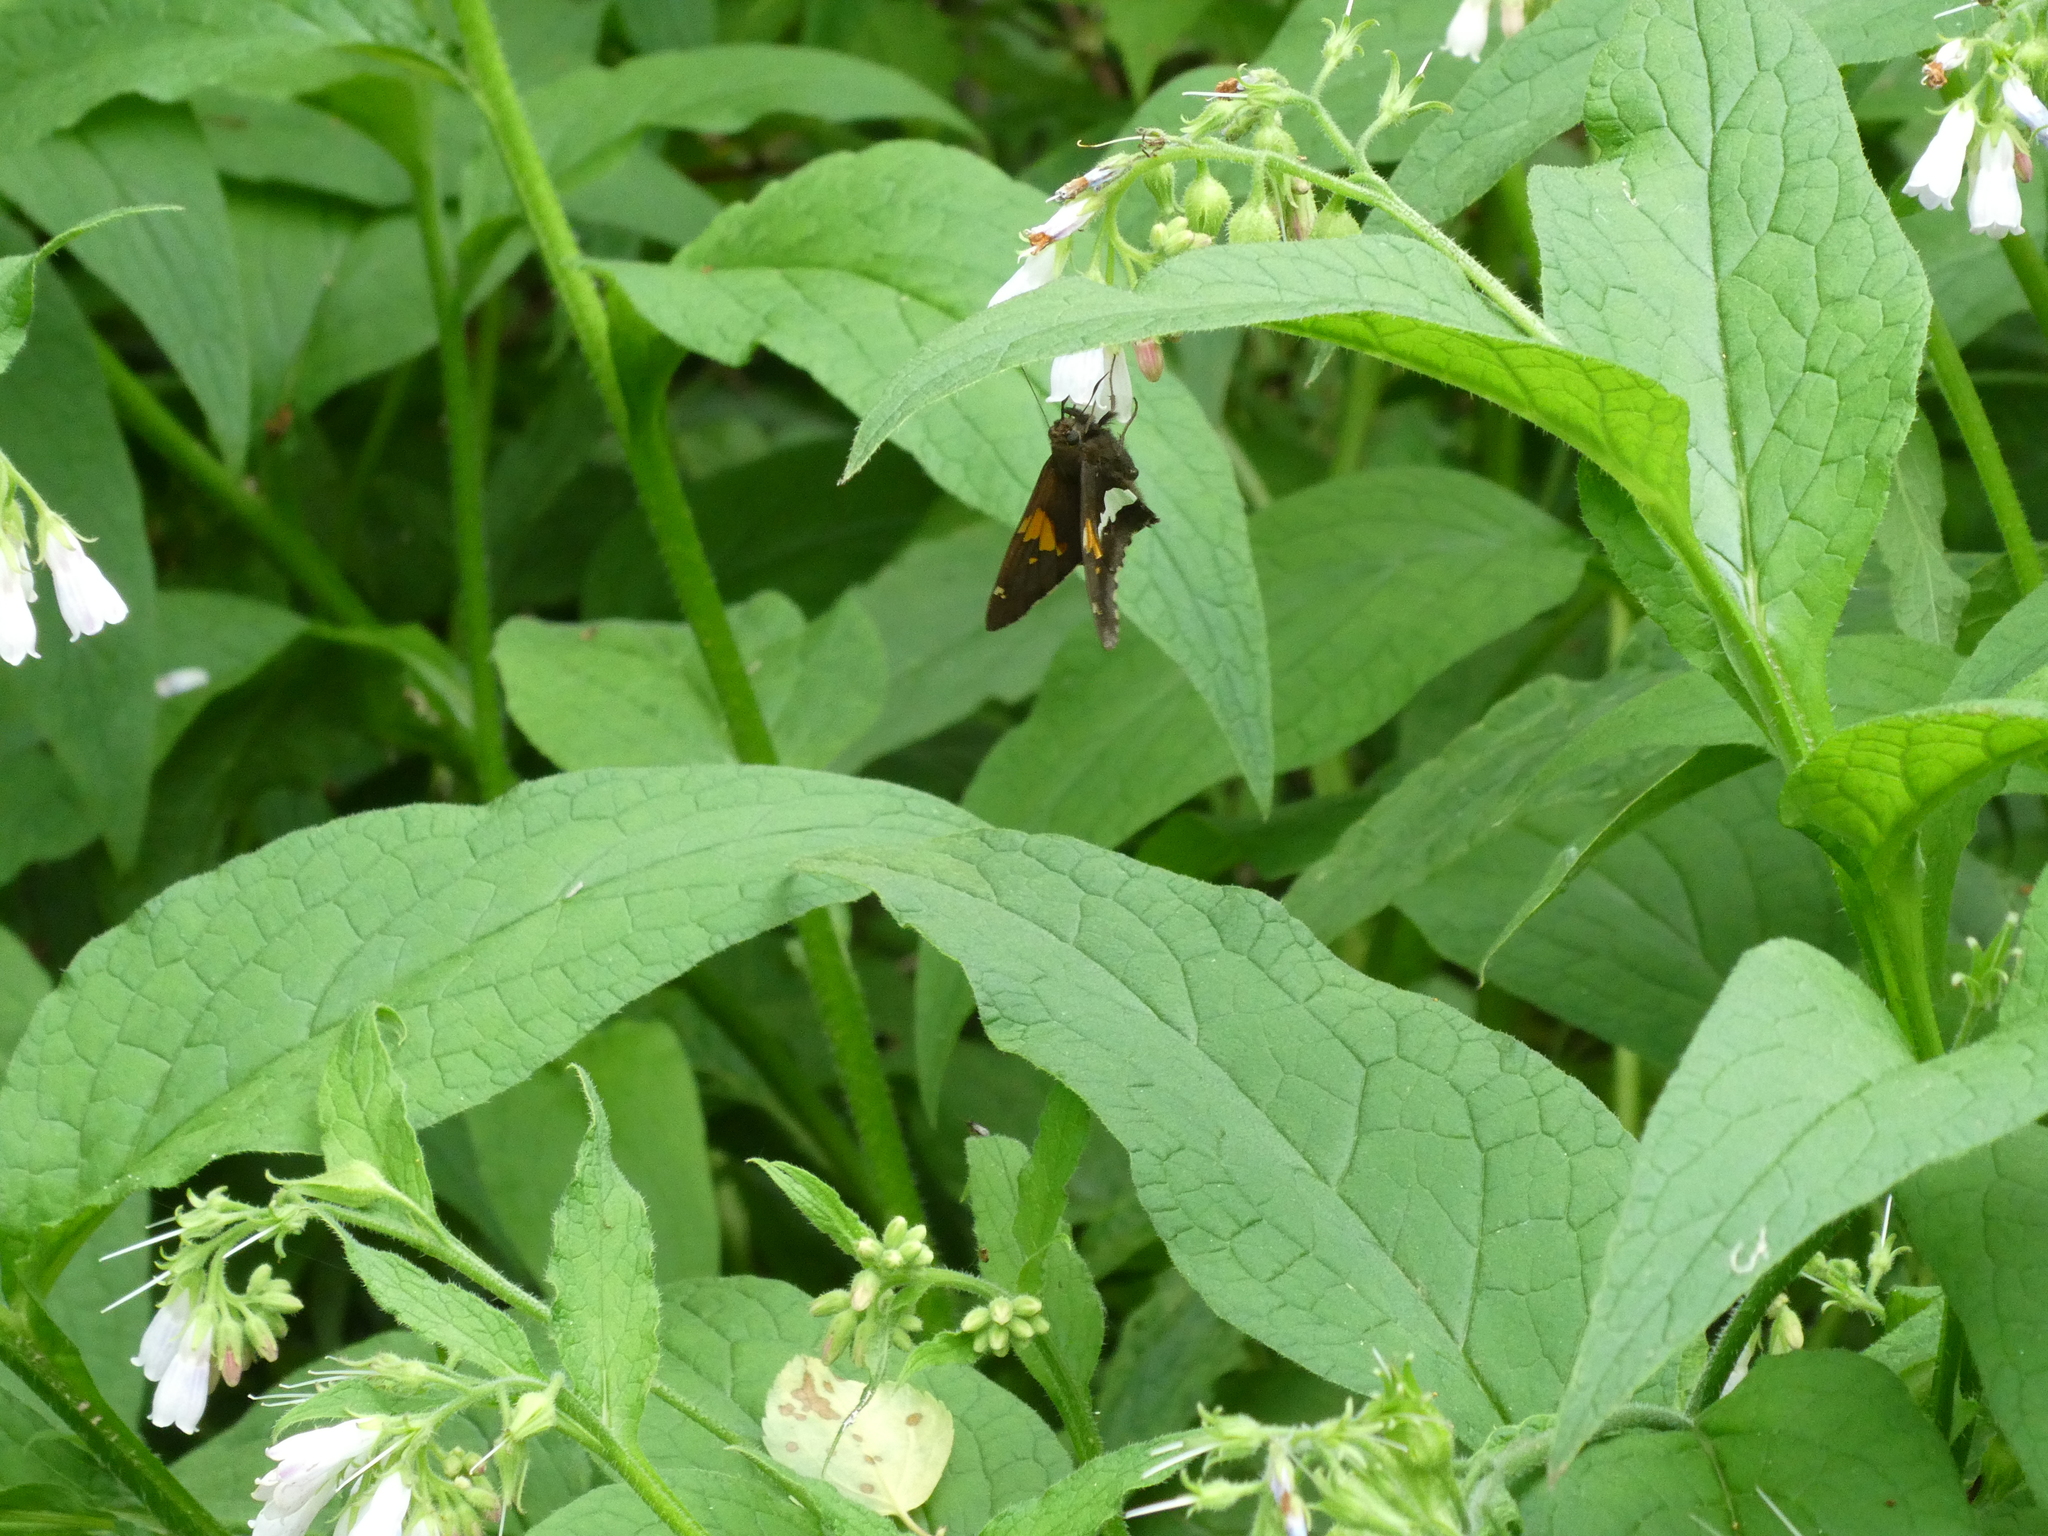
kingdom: Animalia
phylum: Arthropoda
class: Insecta
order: Lepidoptera
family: Hesperiidae
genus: Epargyreus
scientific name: Epargyreus clarus
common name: Silver-spotted skipper
